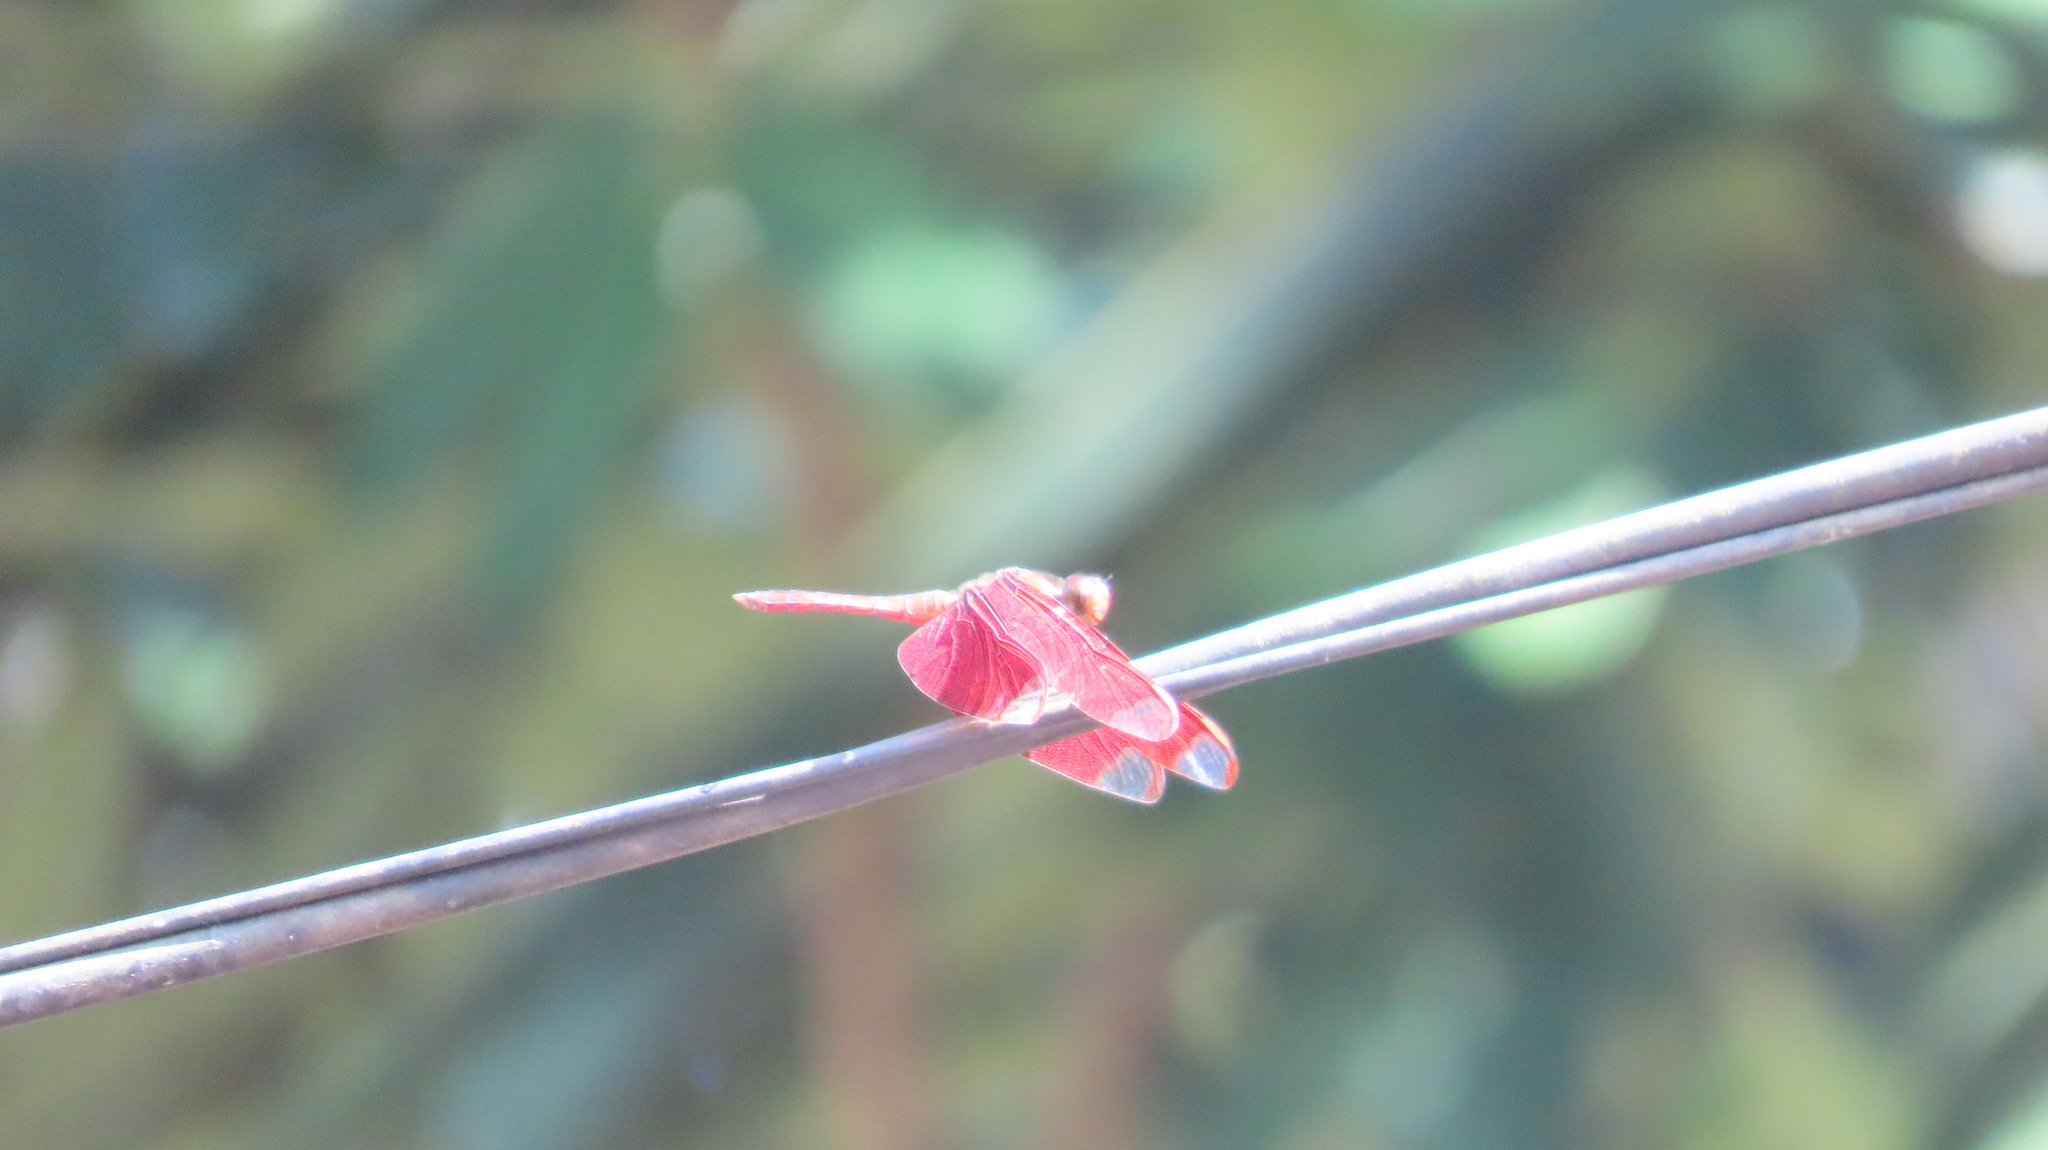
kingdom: Animalia
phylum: Arthropoda
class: Insecta
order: Odonata
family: Libellulidae
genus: Neurothemis
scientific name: Neurothemis fulvia
